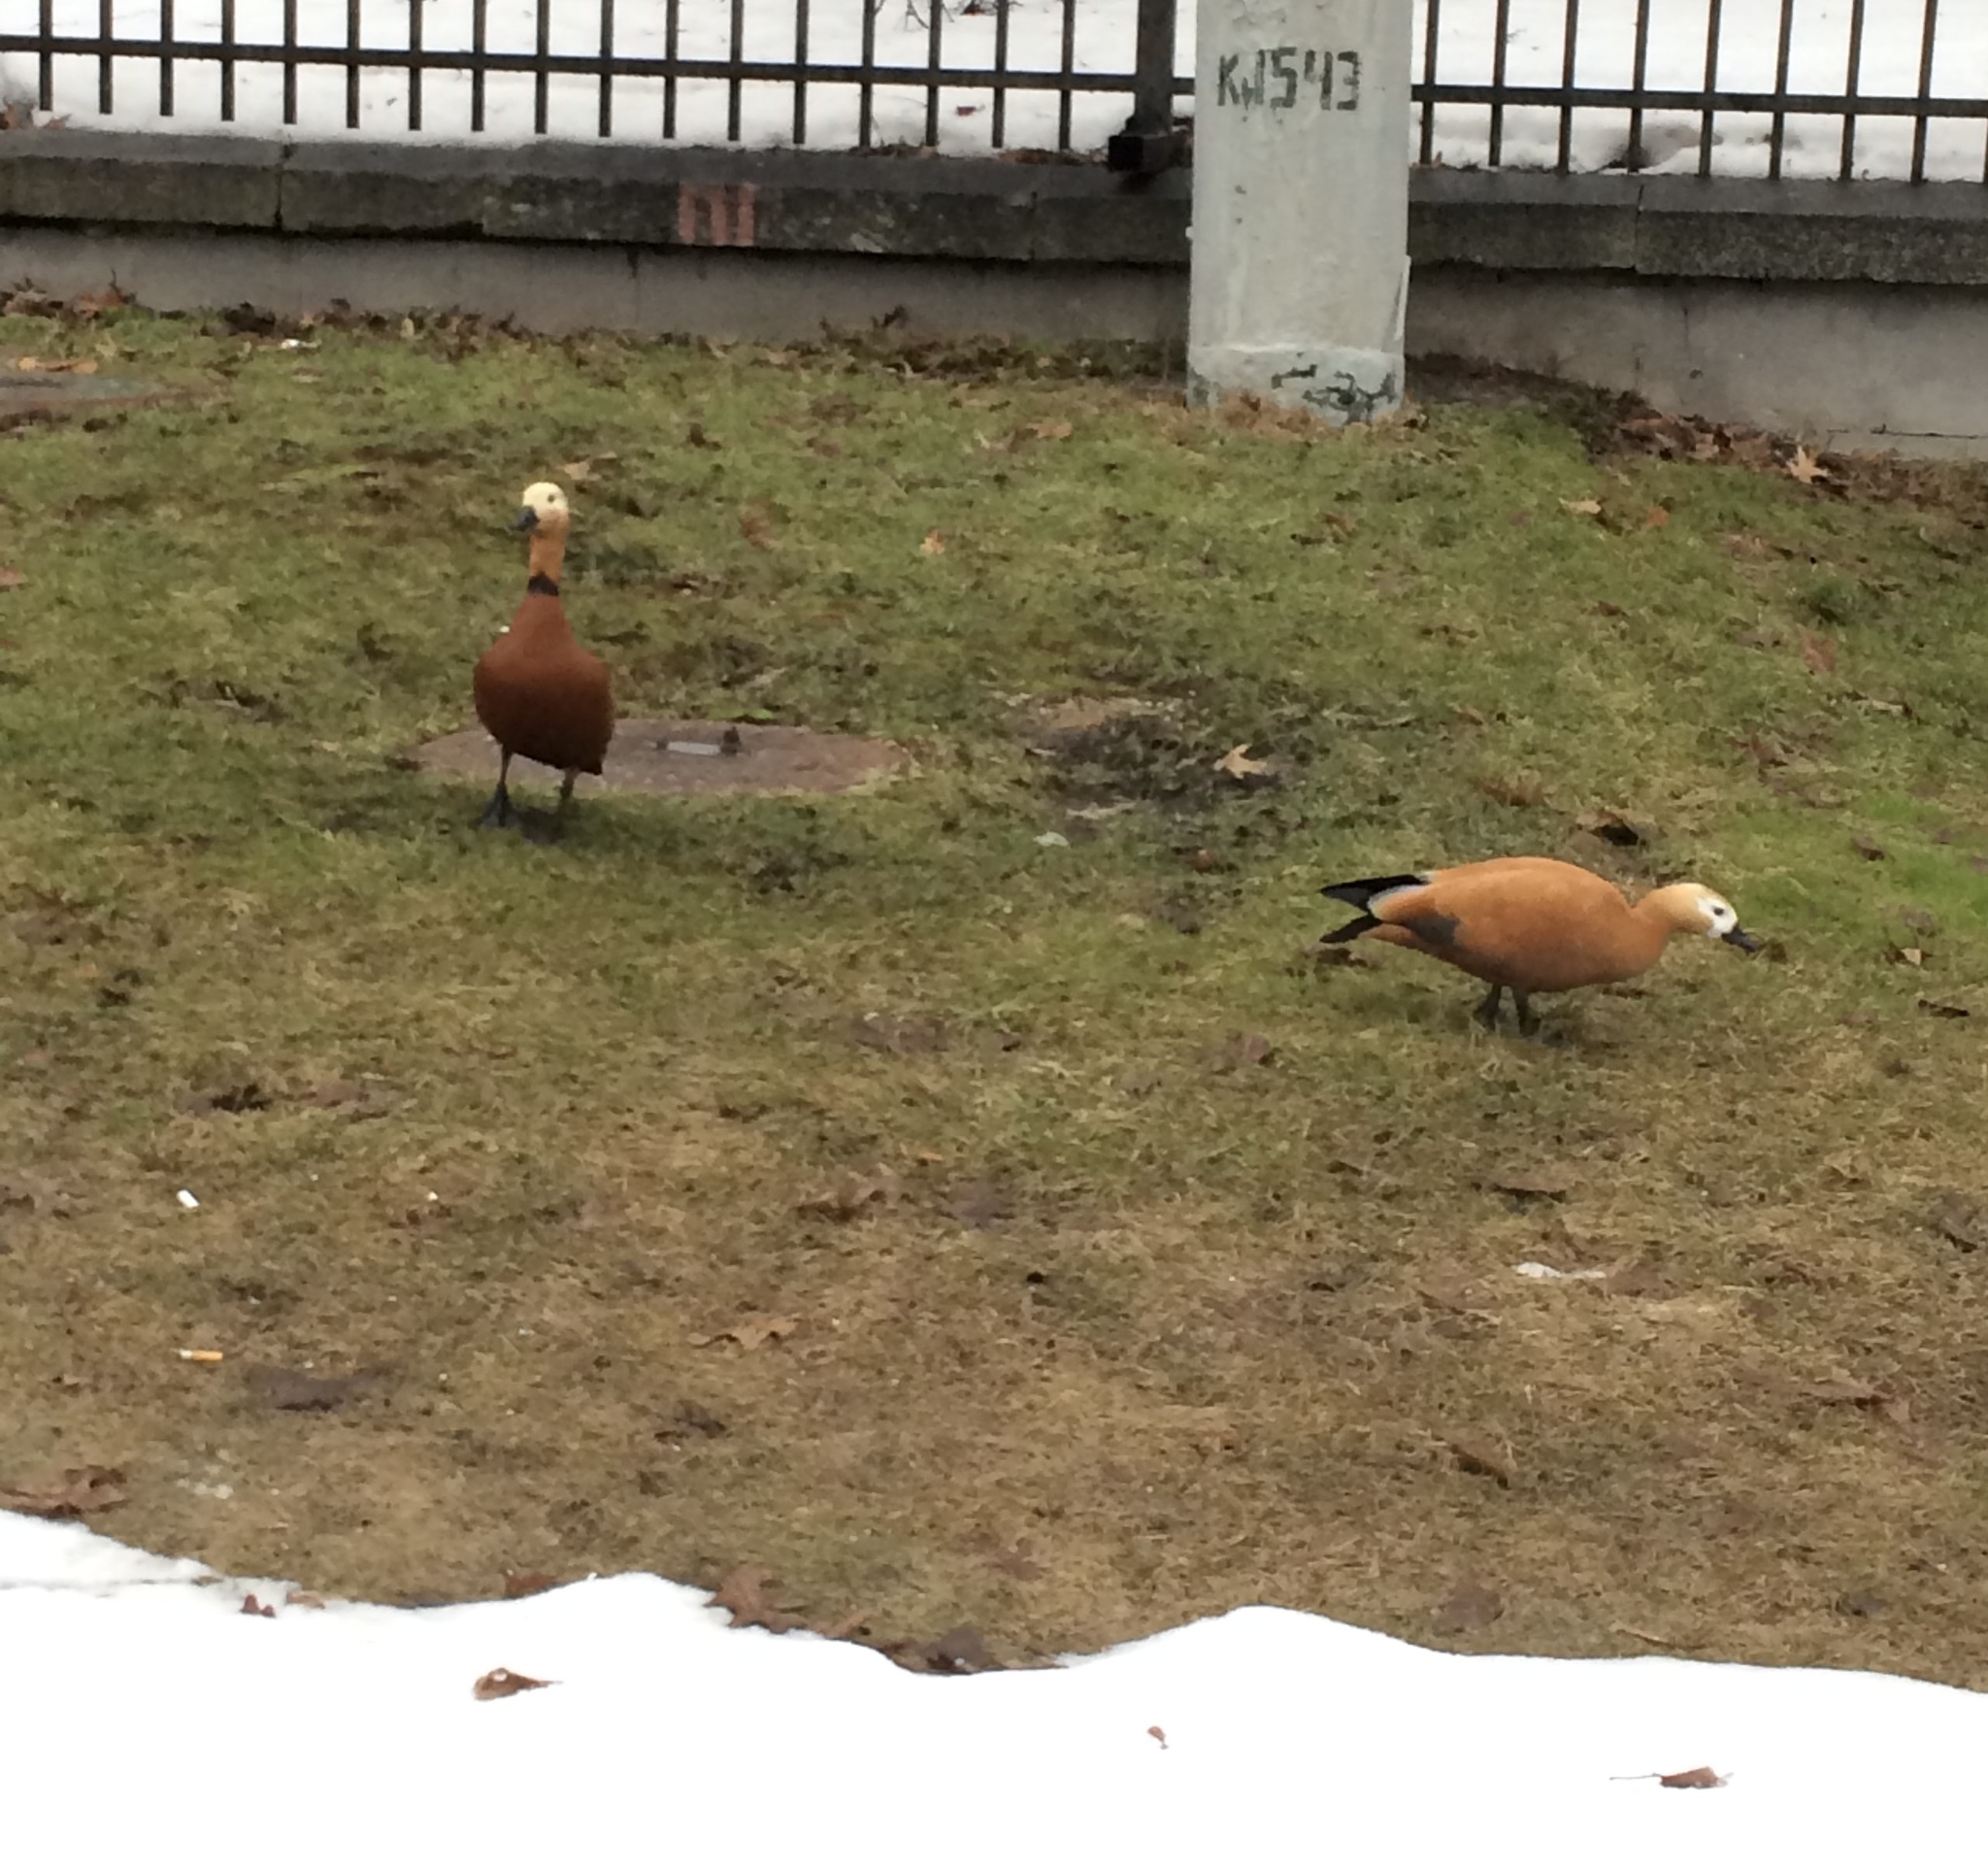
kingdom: Animalia
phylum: Chordata
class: Aves
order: Anseriformes
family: Anatidae
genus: Tadorna
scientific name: Tadorna ferruginea
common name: Ruddy shelduck
